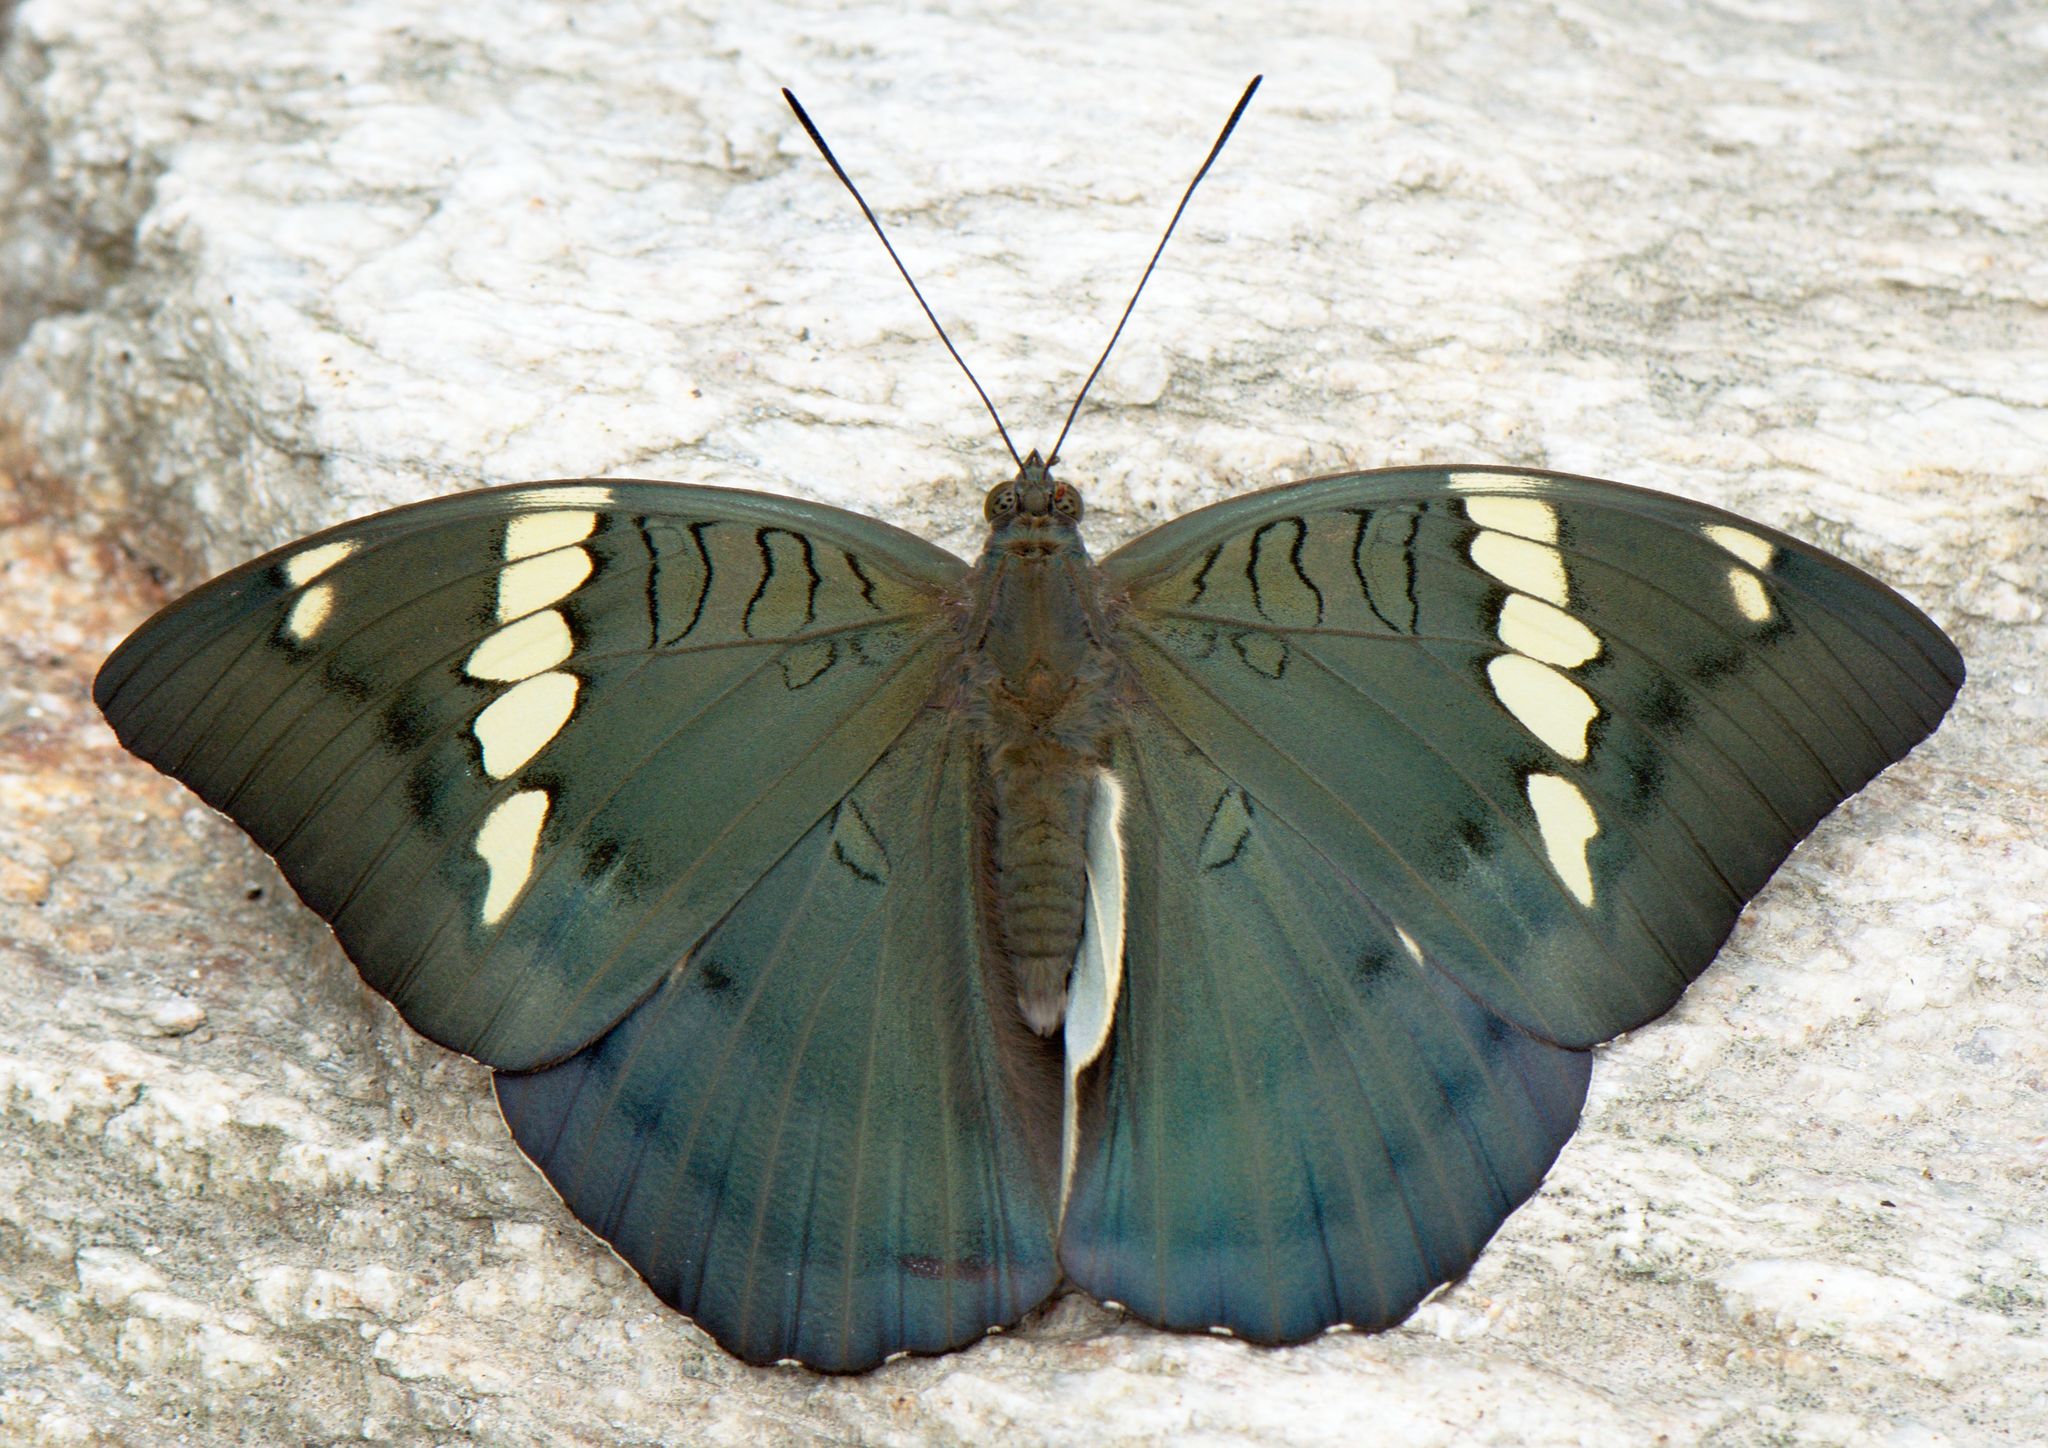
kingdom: Animalia
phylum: Arthropoda
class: Insecta
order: Lepidoptera
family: Nymphalidae
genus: Euthalia
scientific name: Euthalia patala
